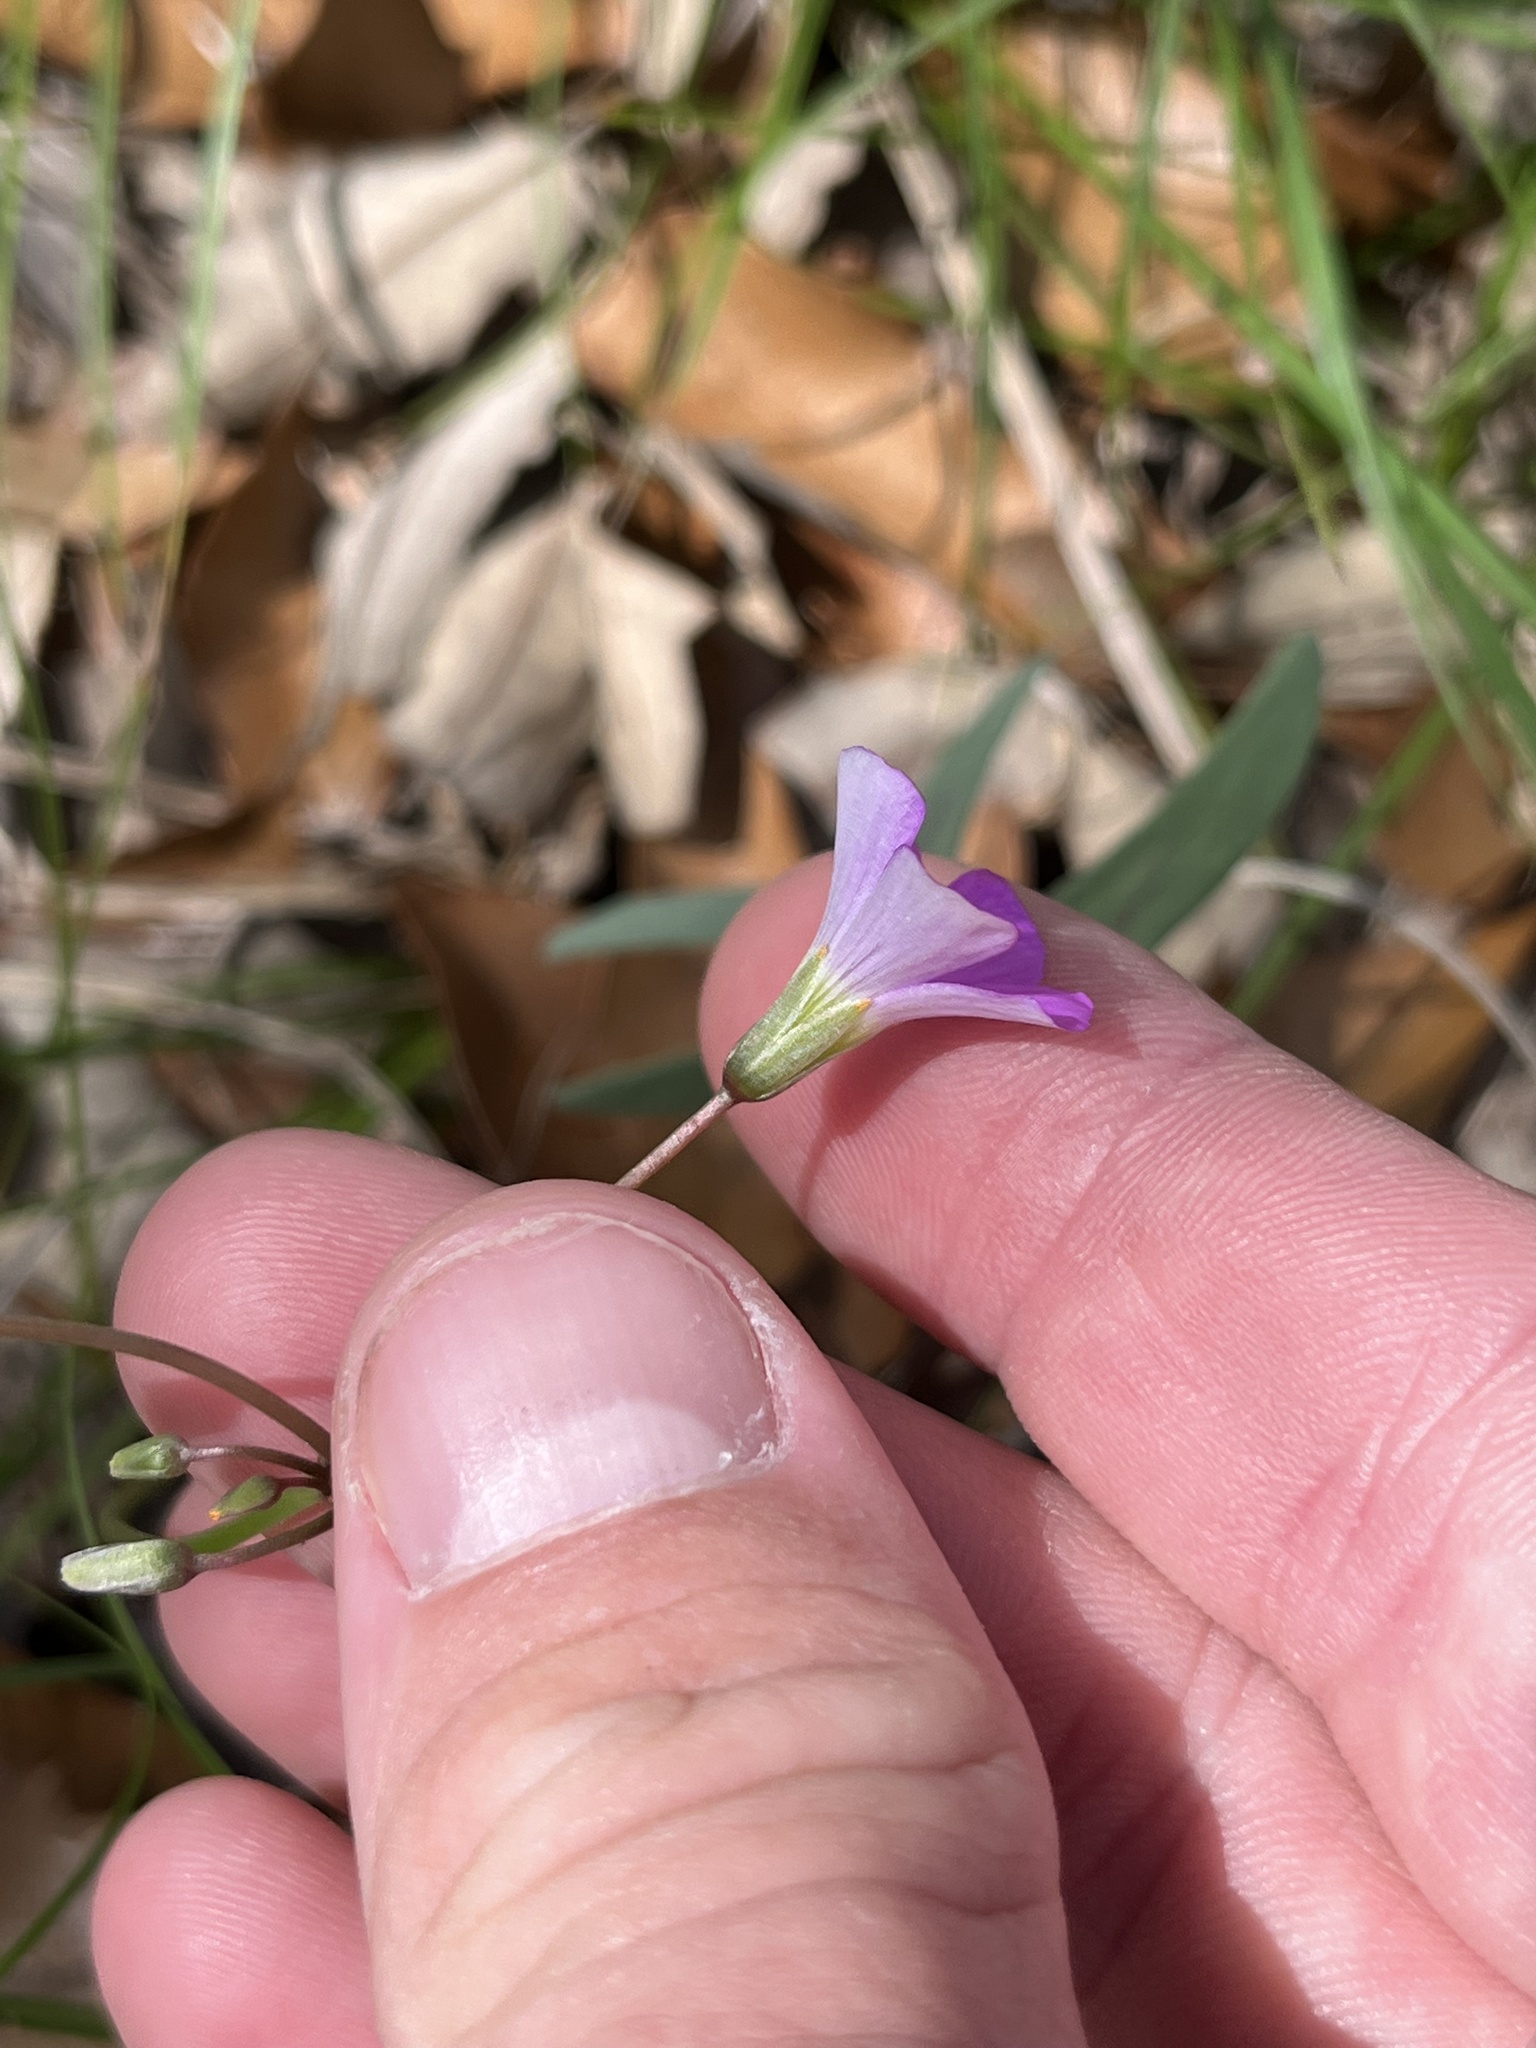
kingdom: Plantae
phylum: Tracheophyta
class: Magnoliopsida
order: Oxalidales
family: Oxalidaceae
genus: Oxalis
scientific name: Oxalis drummondii
